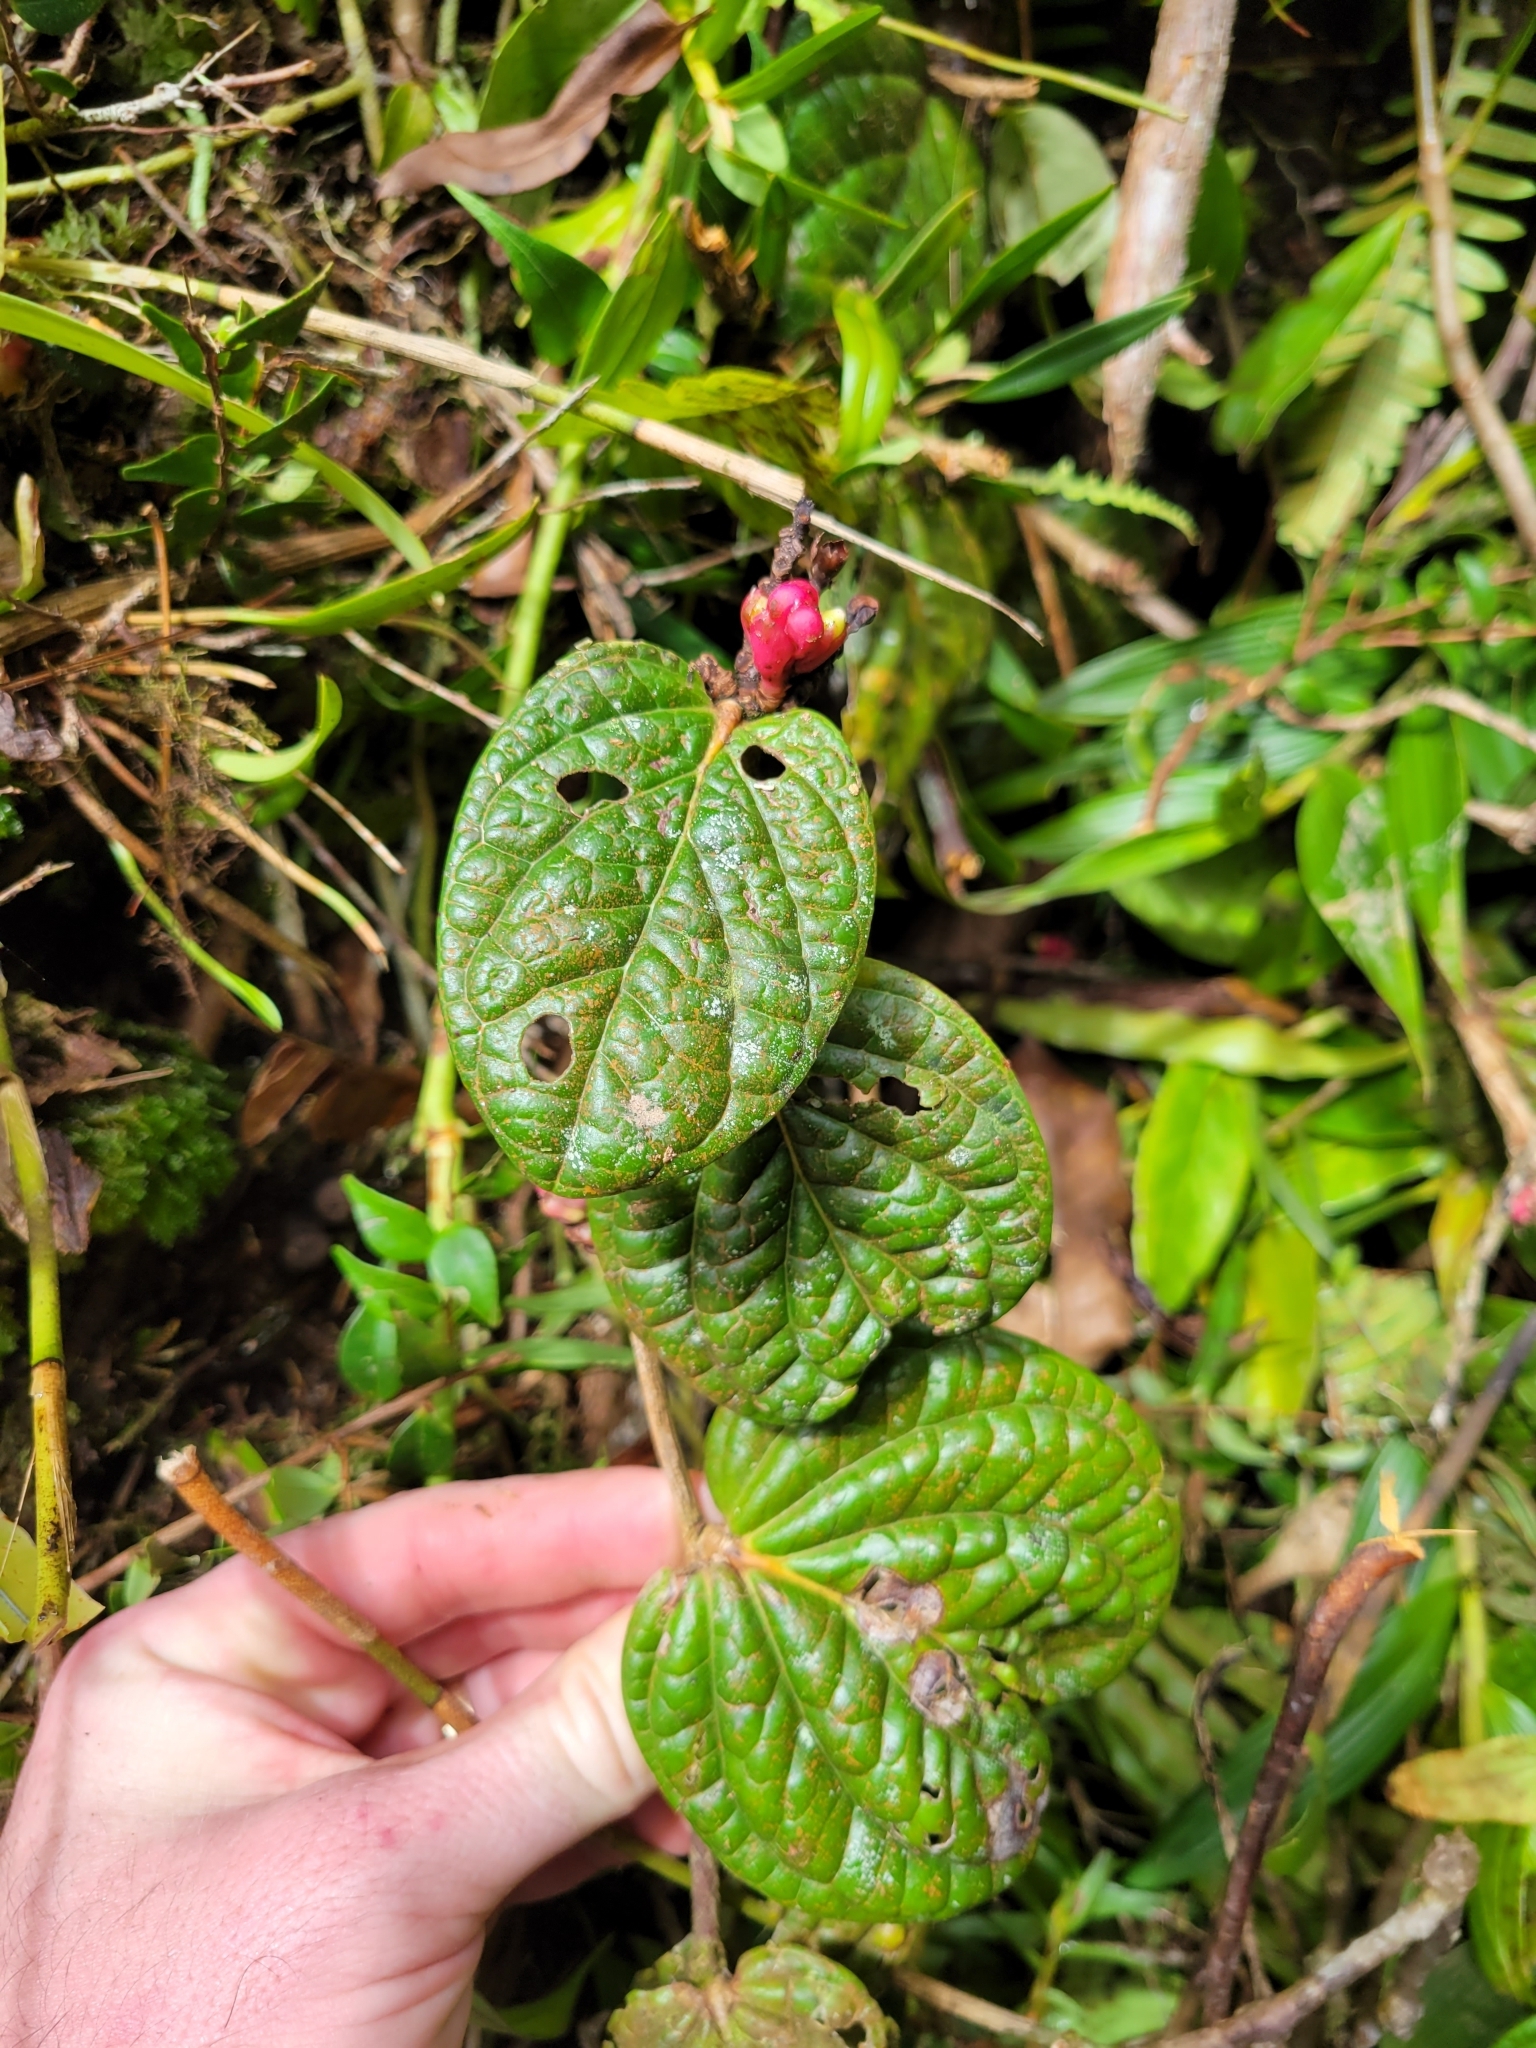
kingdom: Plantae
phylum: Tracheophyta
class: Magnoliopsida
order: Ericales
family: Ericaceae
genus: Cavendishia
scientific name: Cavendishia axillaris
